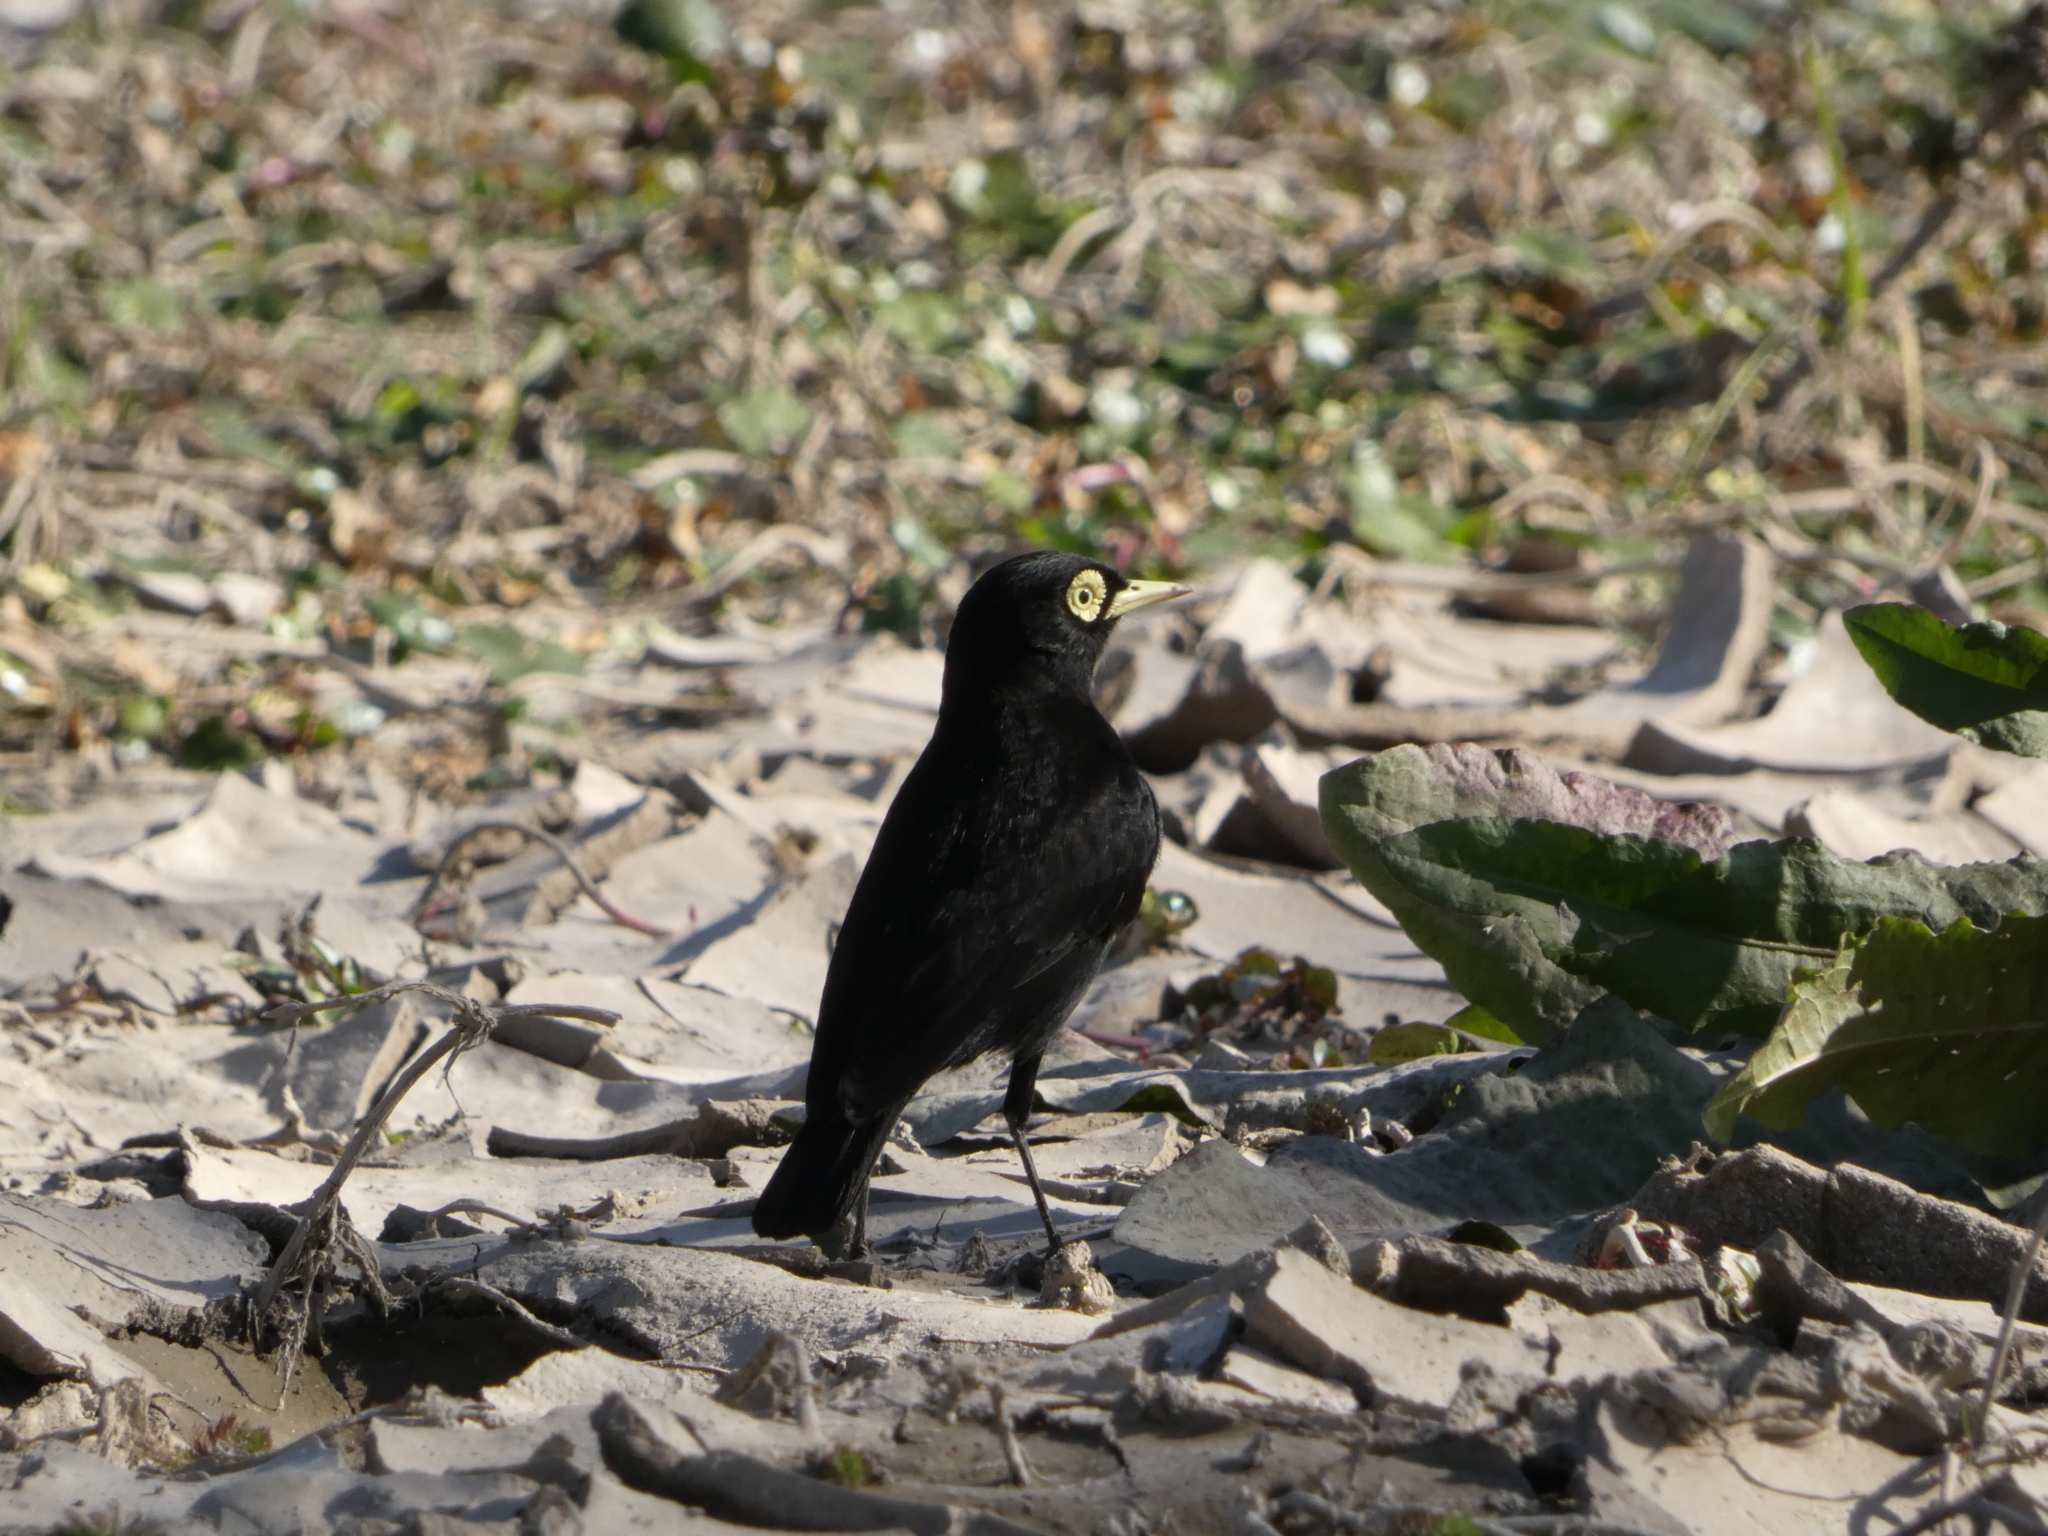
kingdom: Animalia
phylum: Chordata
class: Aves
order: Passeriformes
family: Tyrannidae
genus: Hymenops
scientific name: Hymenops perspicillatus
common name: Spectacled tyrant
